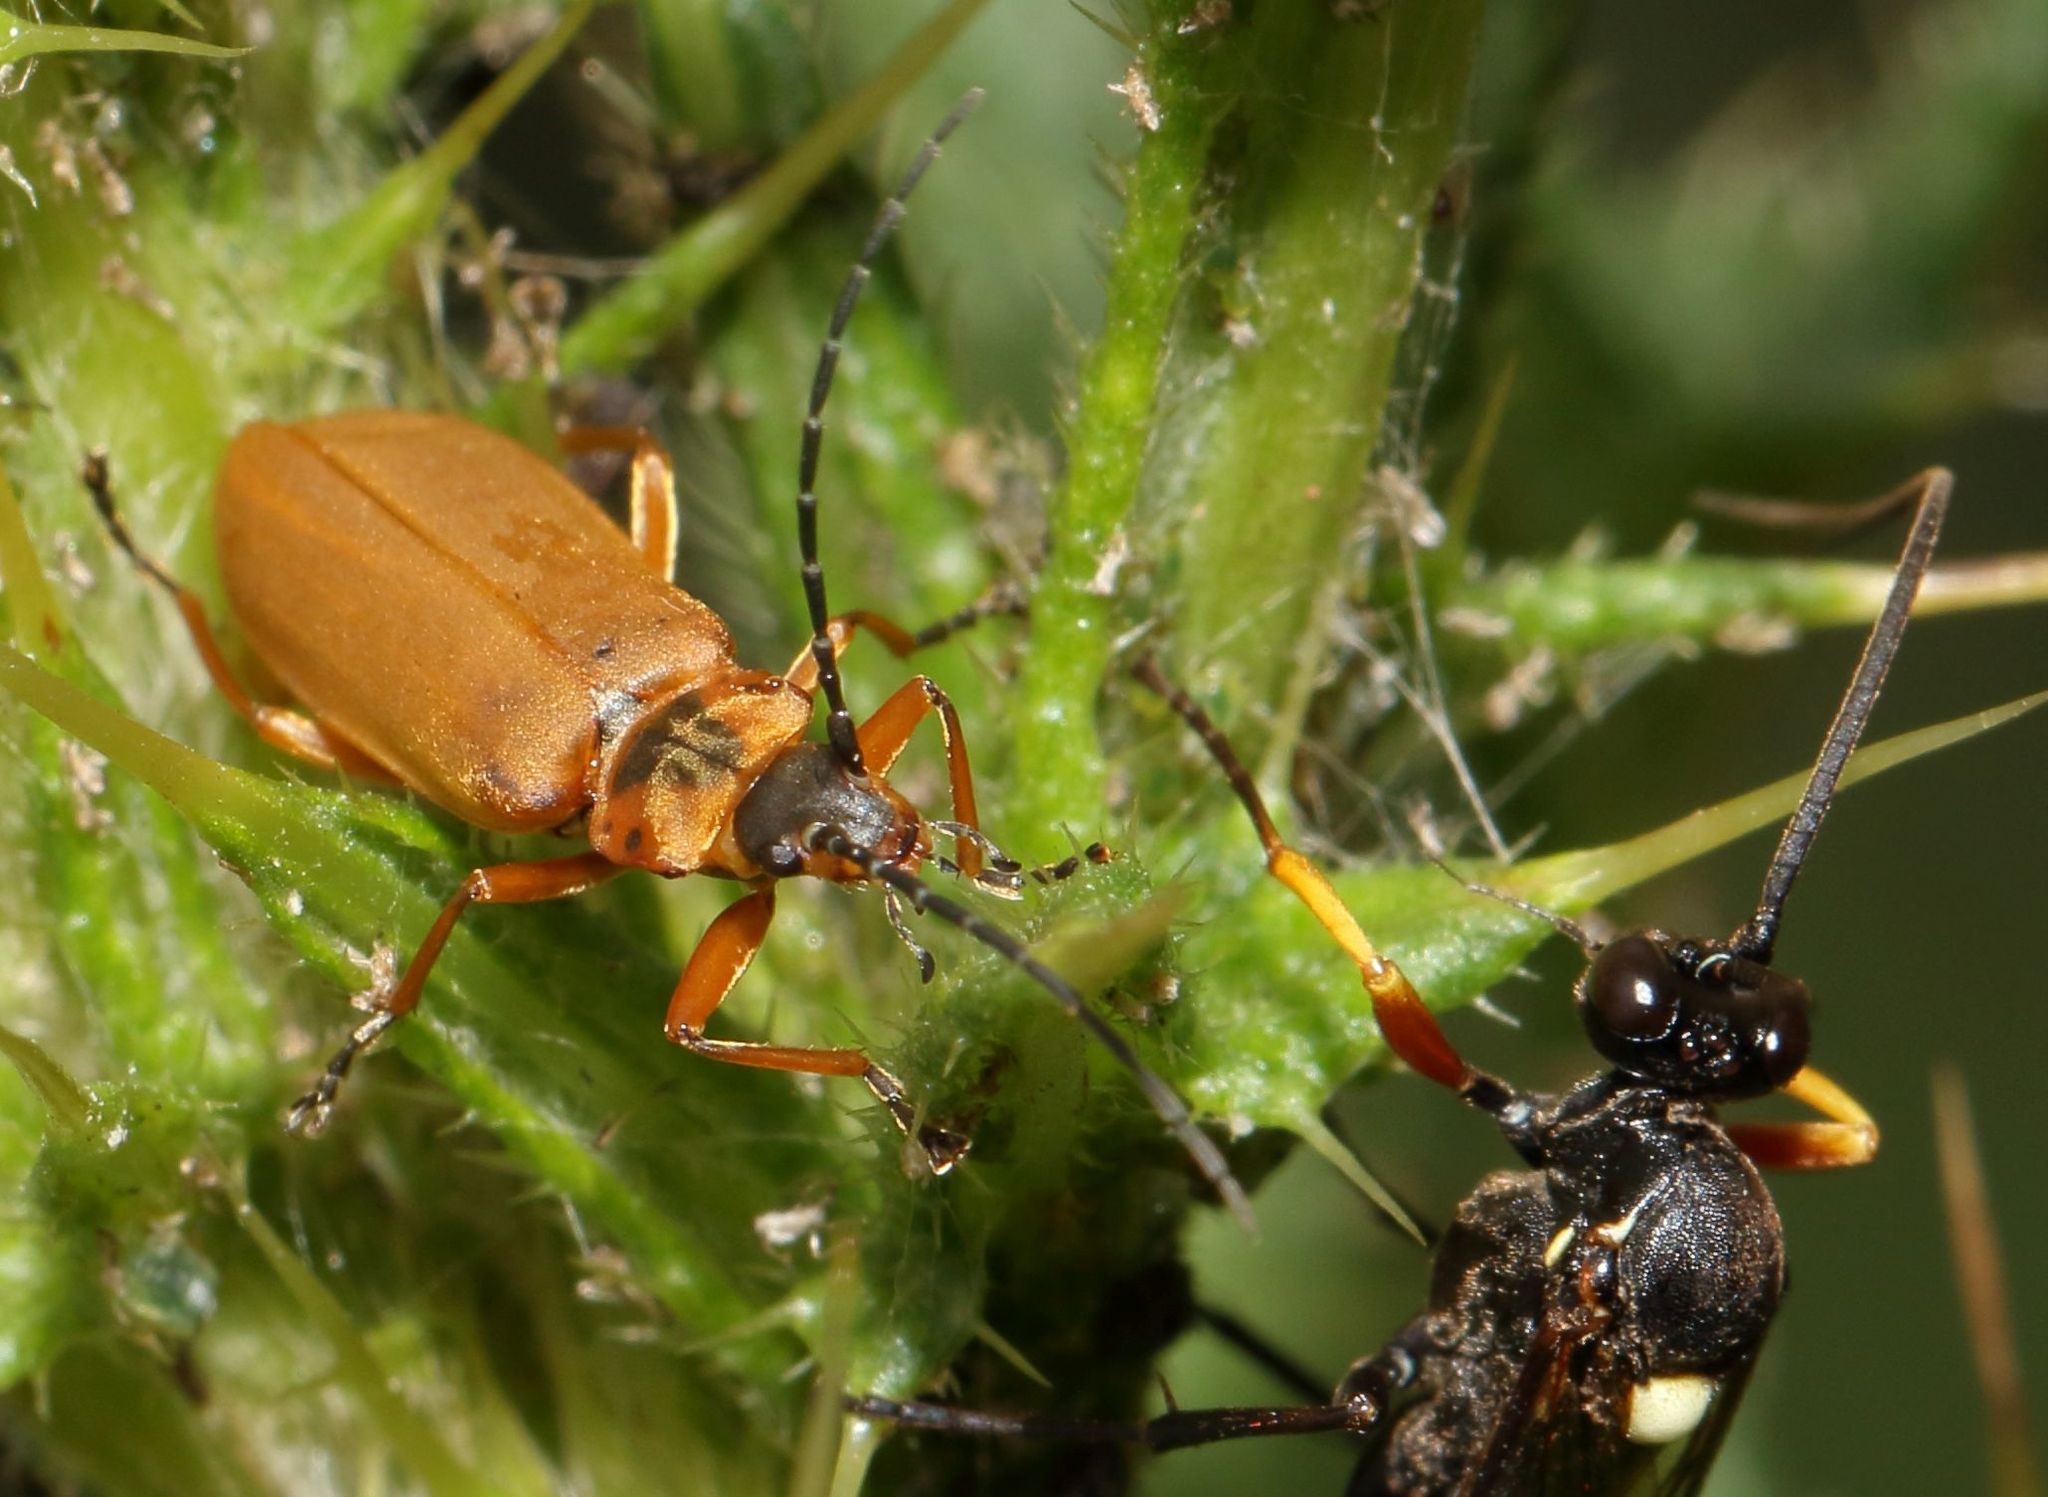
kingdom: Animalia
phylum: Arthropoda
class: Insecta
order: Coleoptera
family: Cantharidae
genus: Afronycha
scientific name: Afronycha
